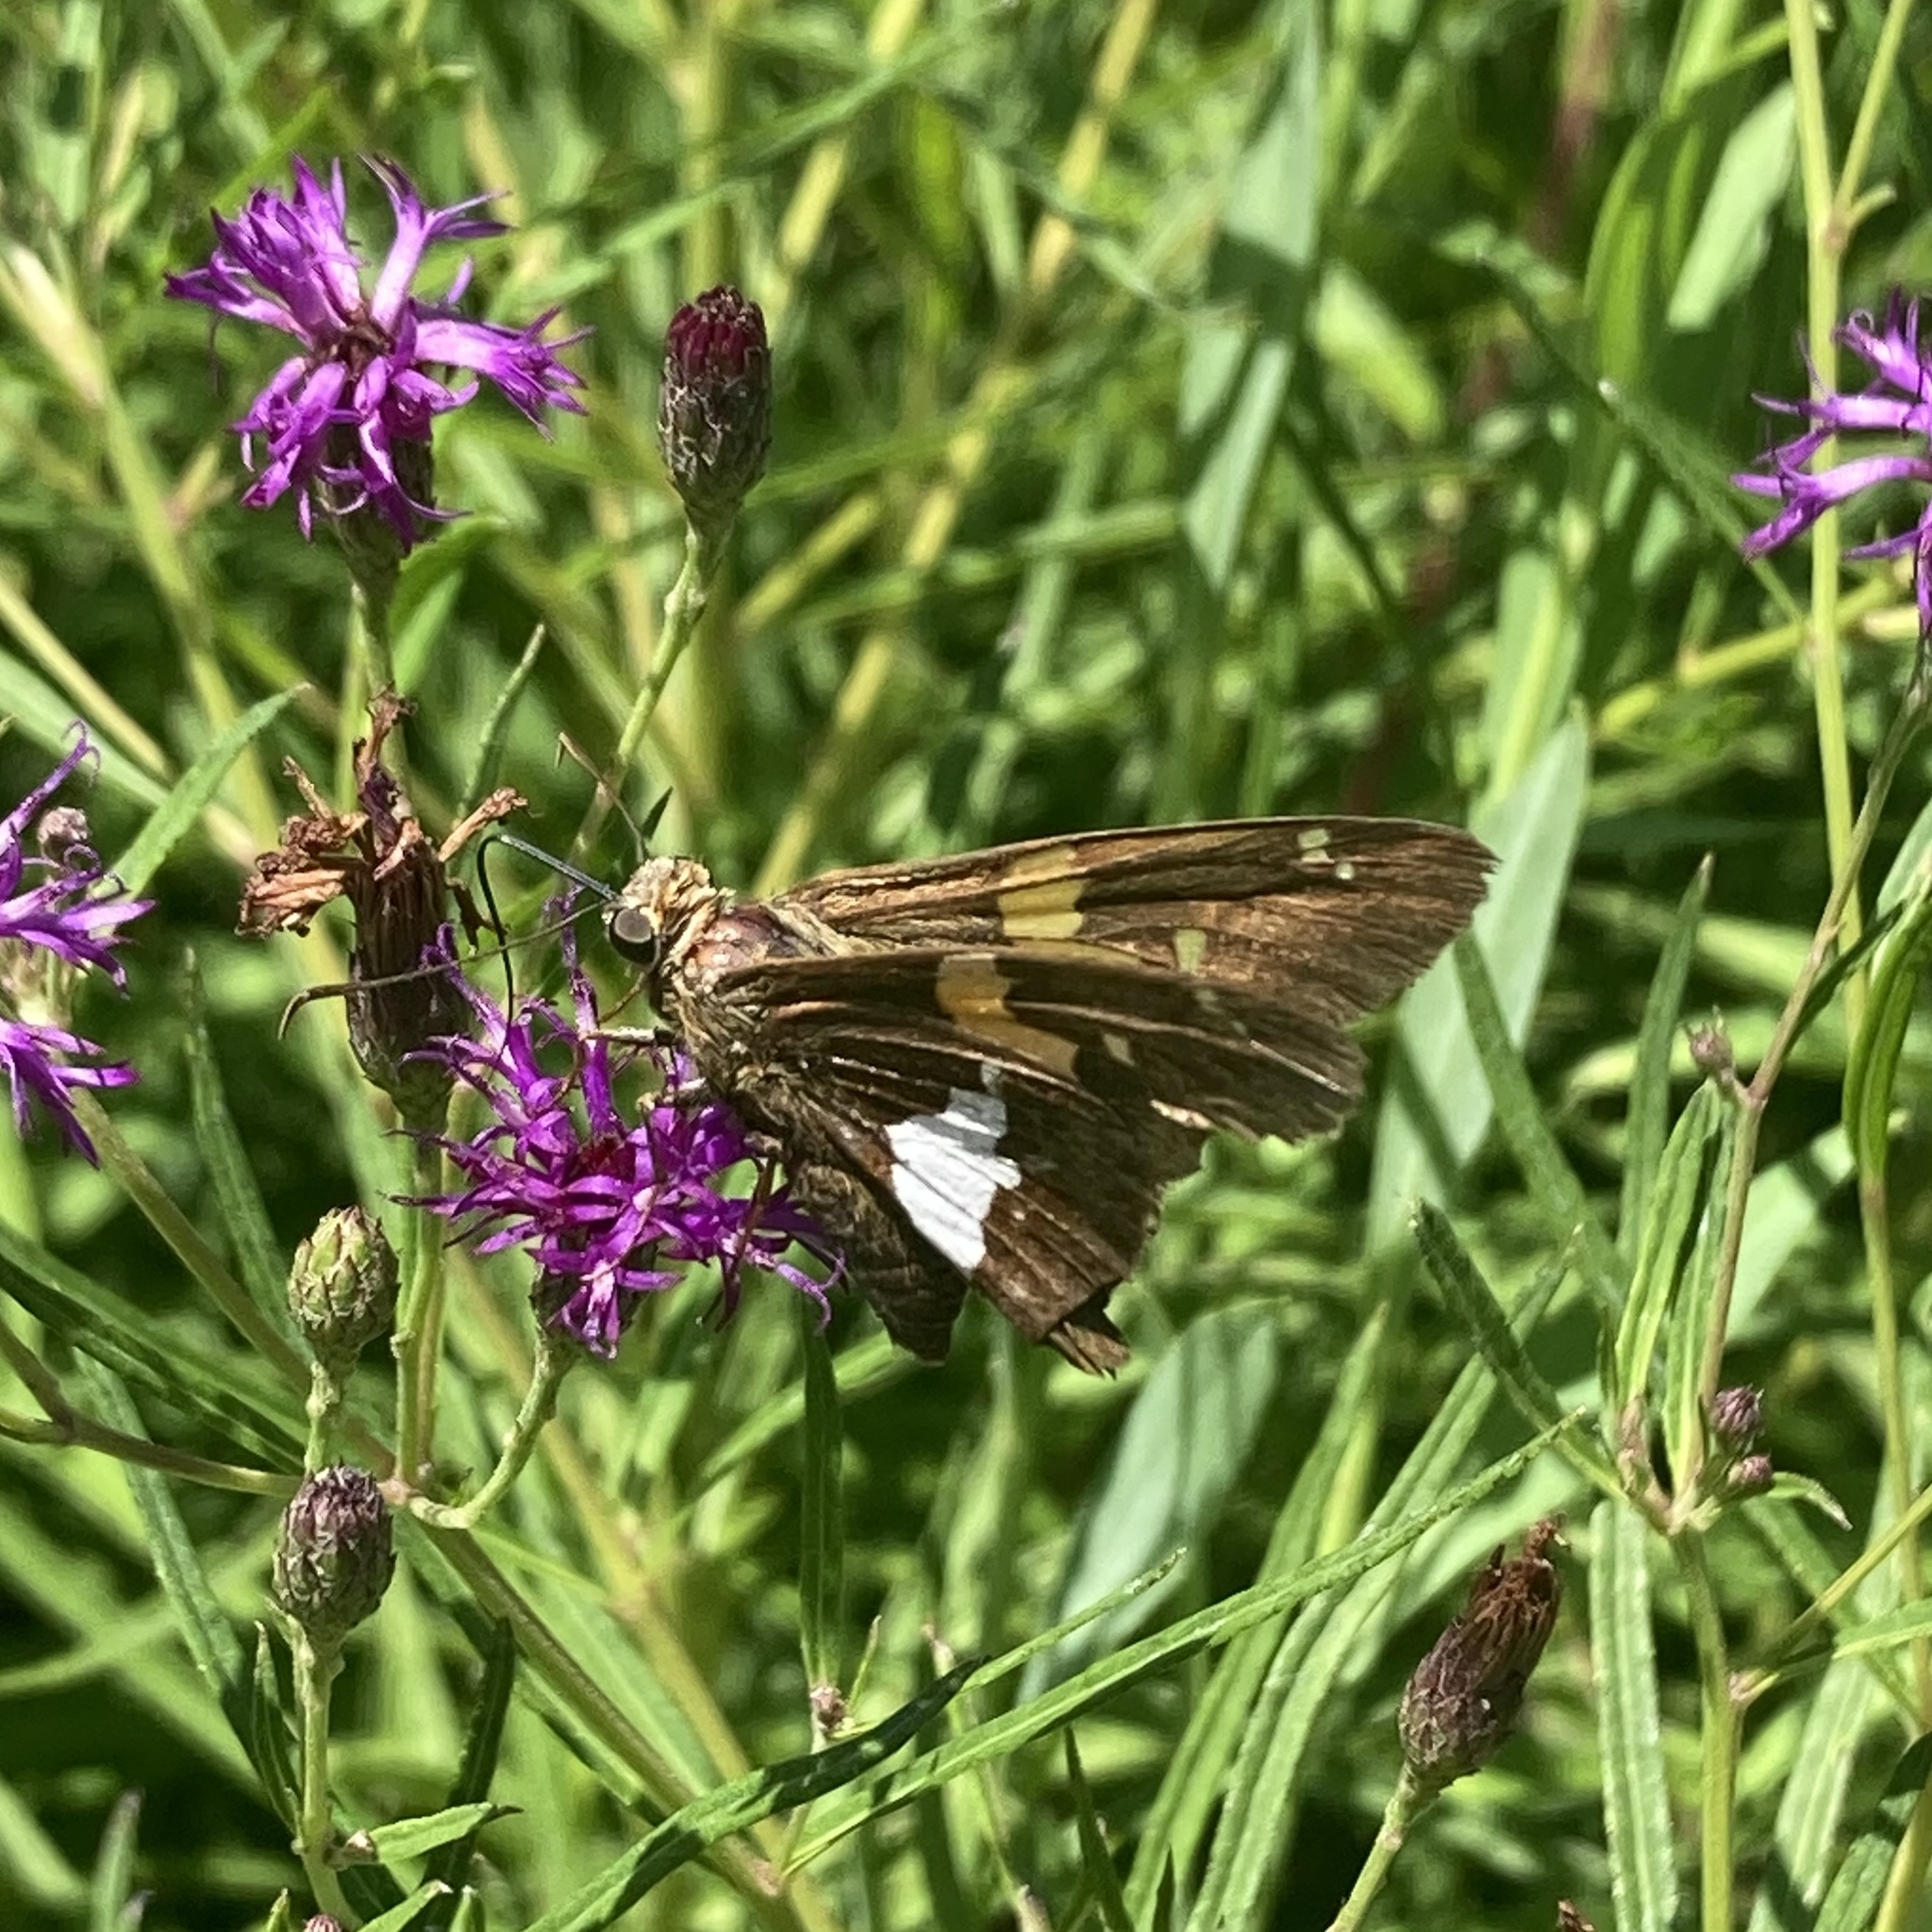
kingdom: Animalia
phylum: Arthropoda
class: Insecta
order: Lepidoptera
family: Hesperiidae
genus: Epargyreus
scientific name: Epargyreus clarus
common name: Silver-spotted skipper
